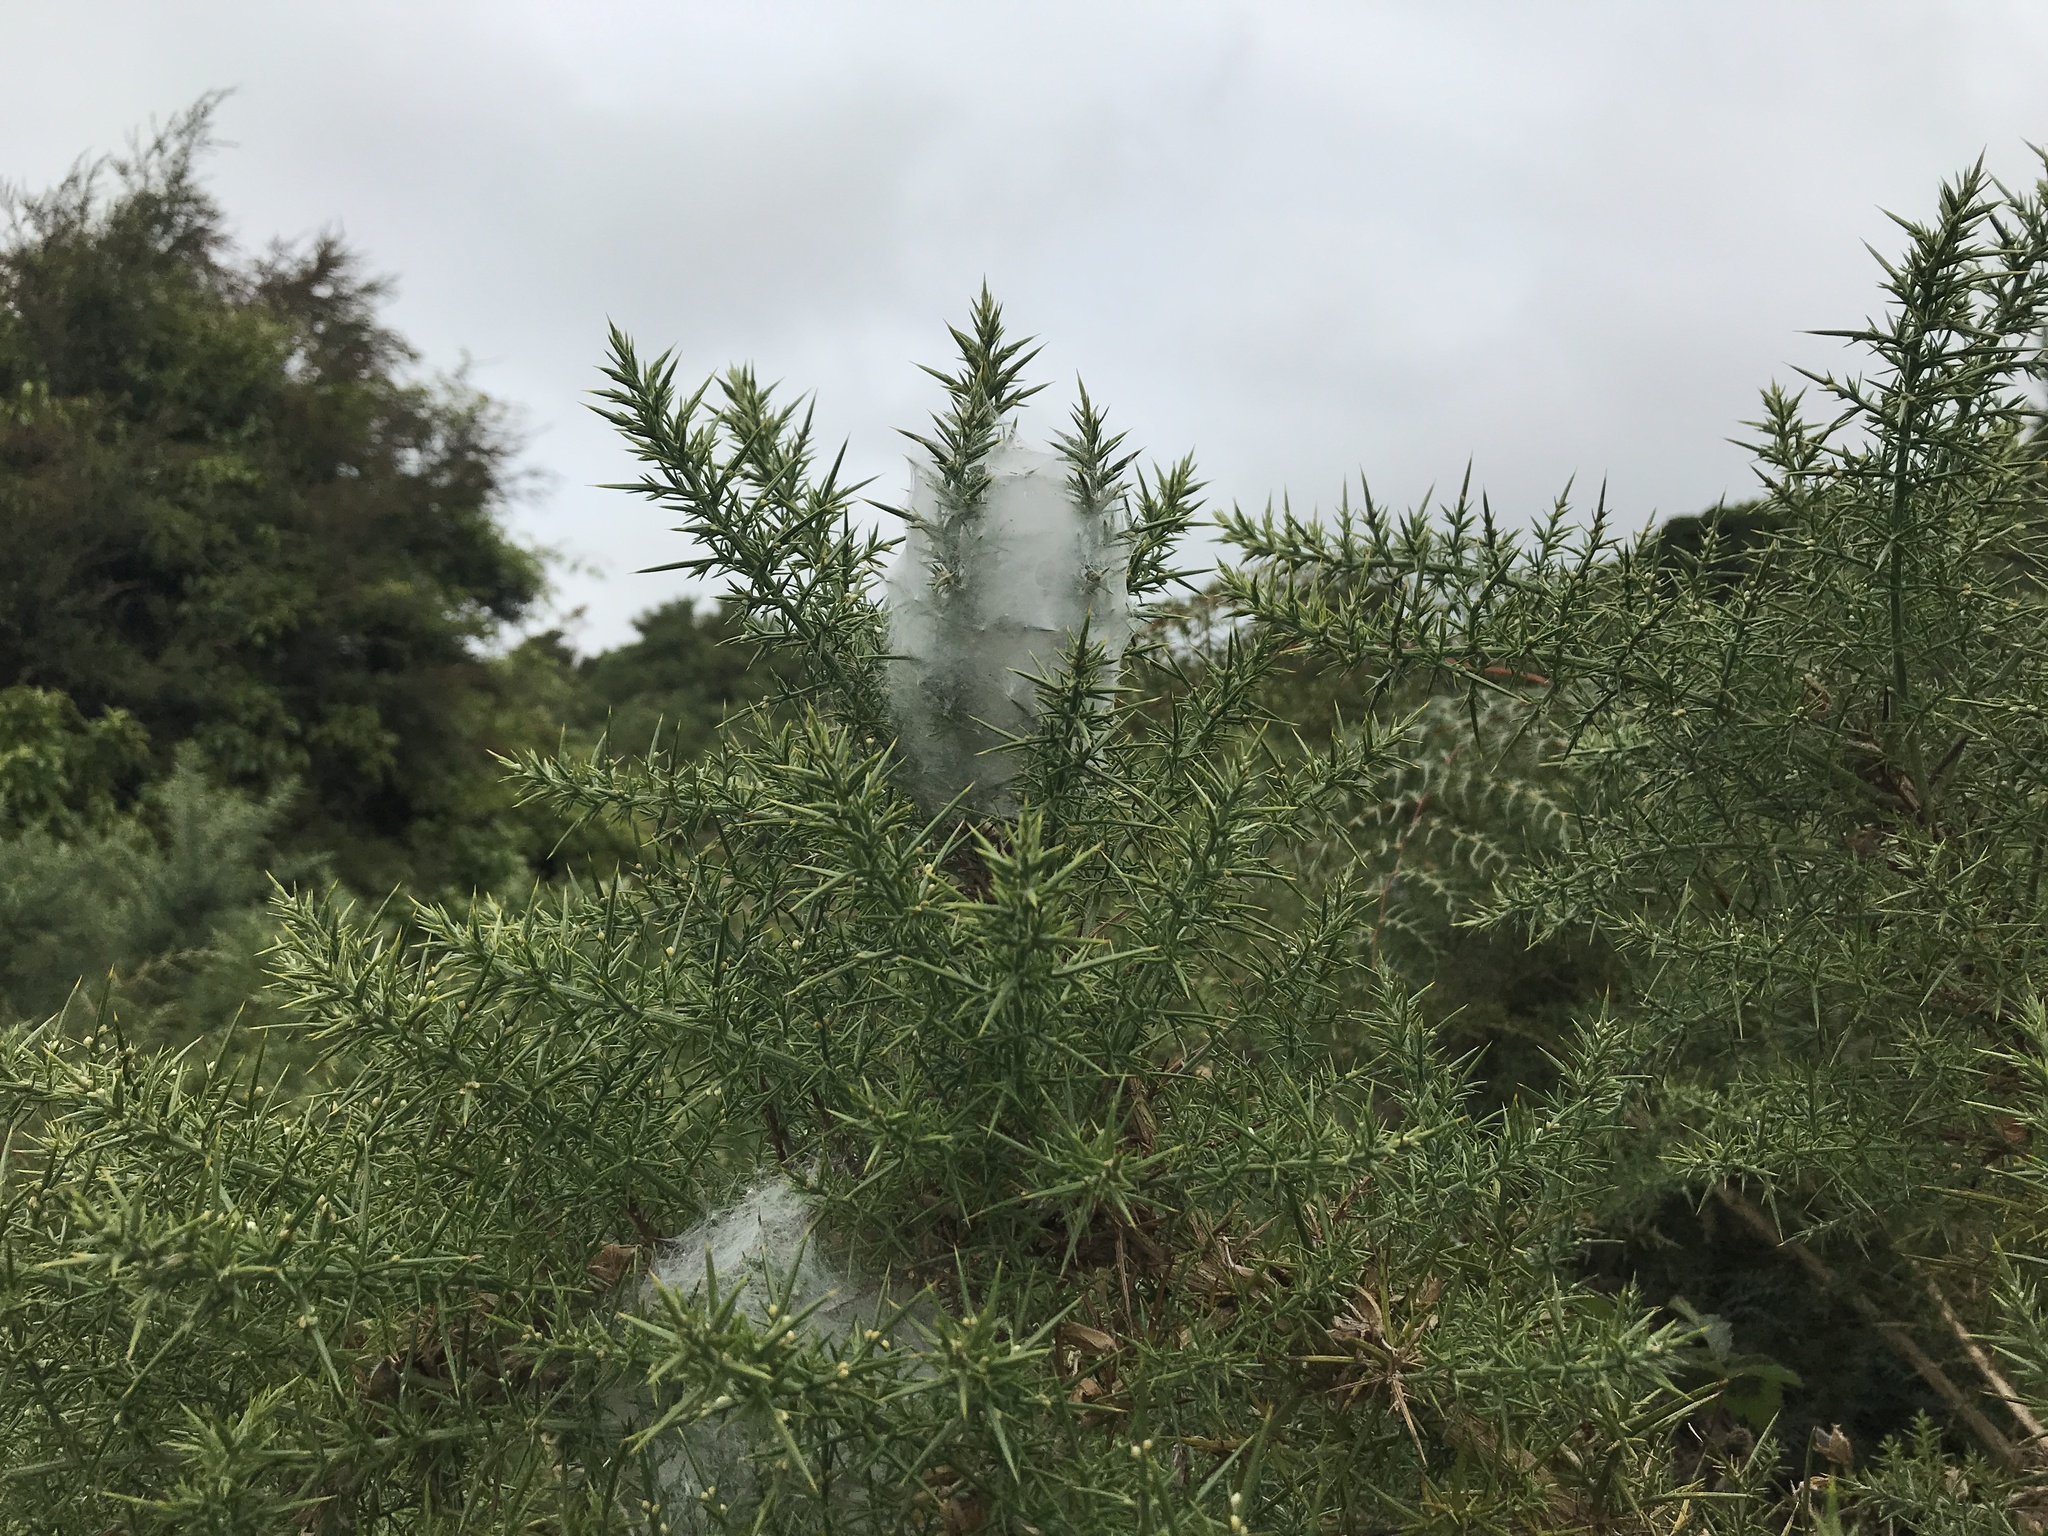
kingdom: Animalia
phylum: Arthropoda
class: Arachnida
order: Trombidiformes
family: Tetranychidae
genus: Tetranychus
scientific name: Tetranychus lintearius
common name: Gorse spider mite
